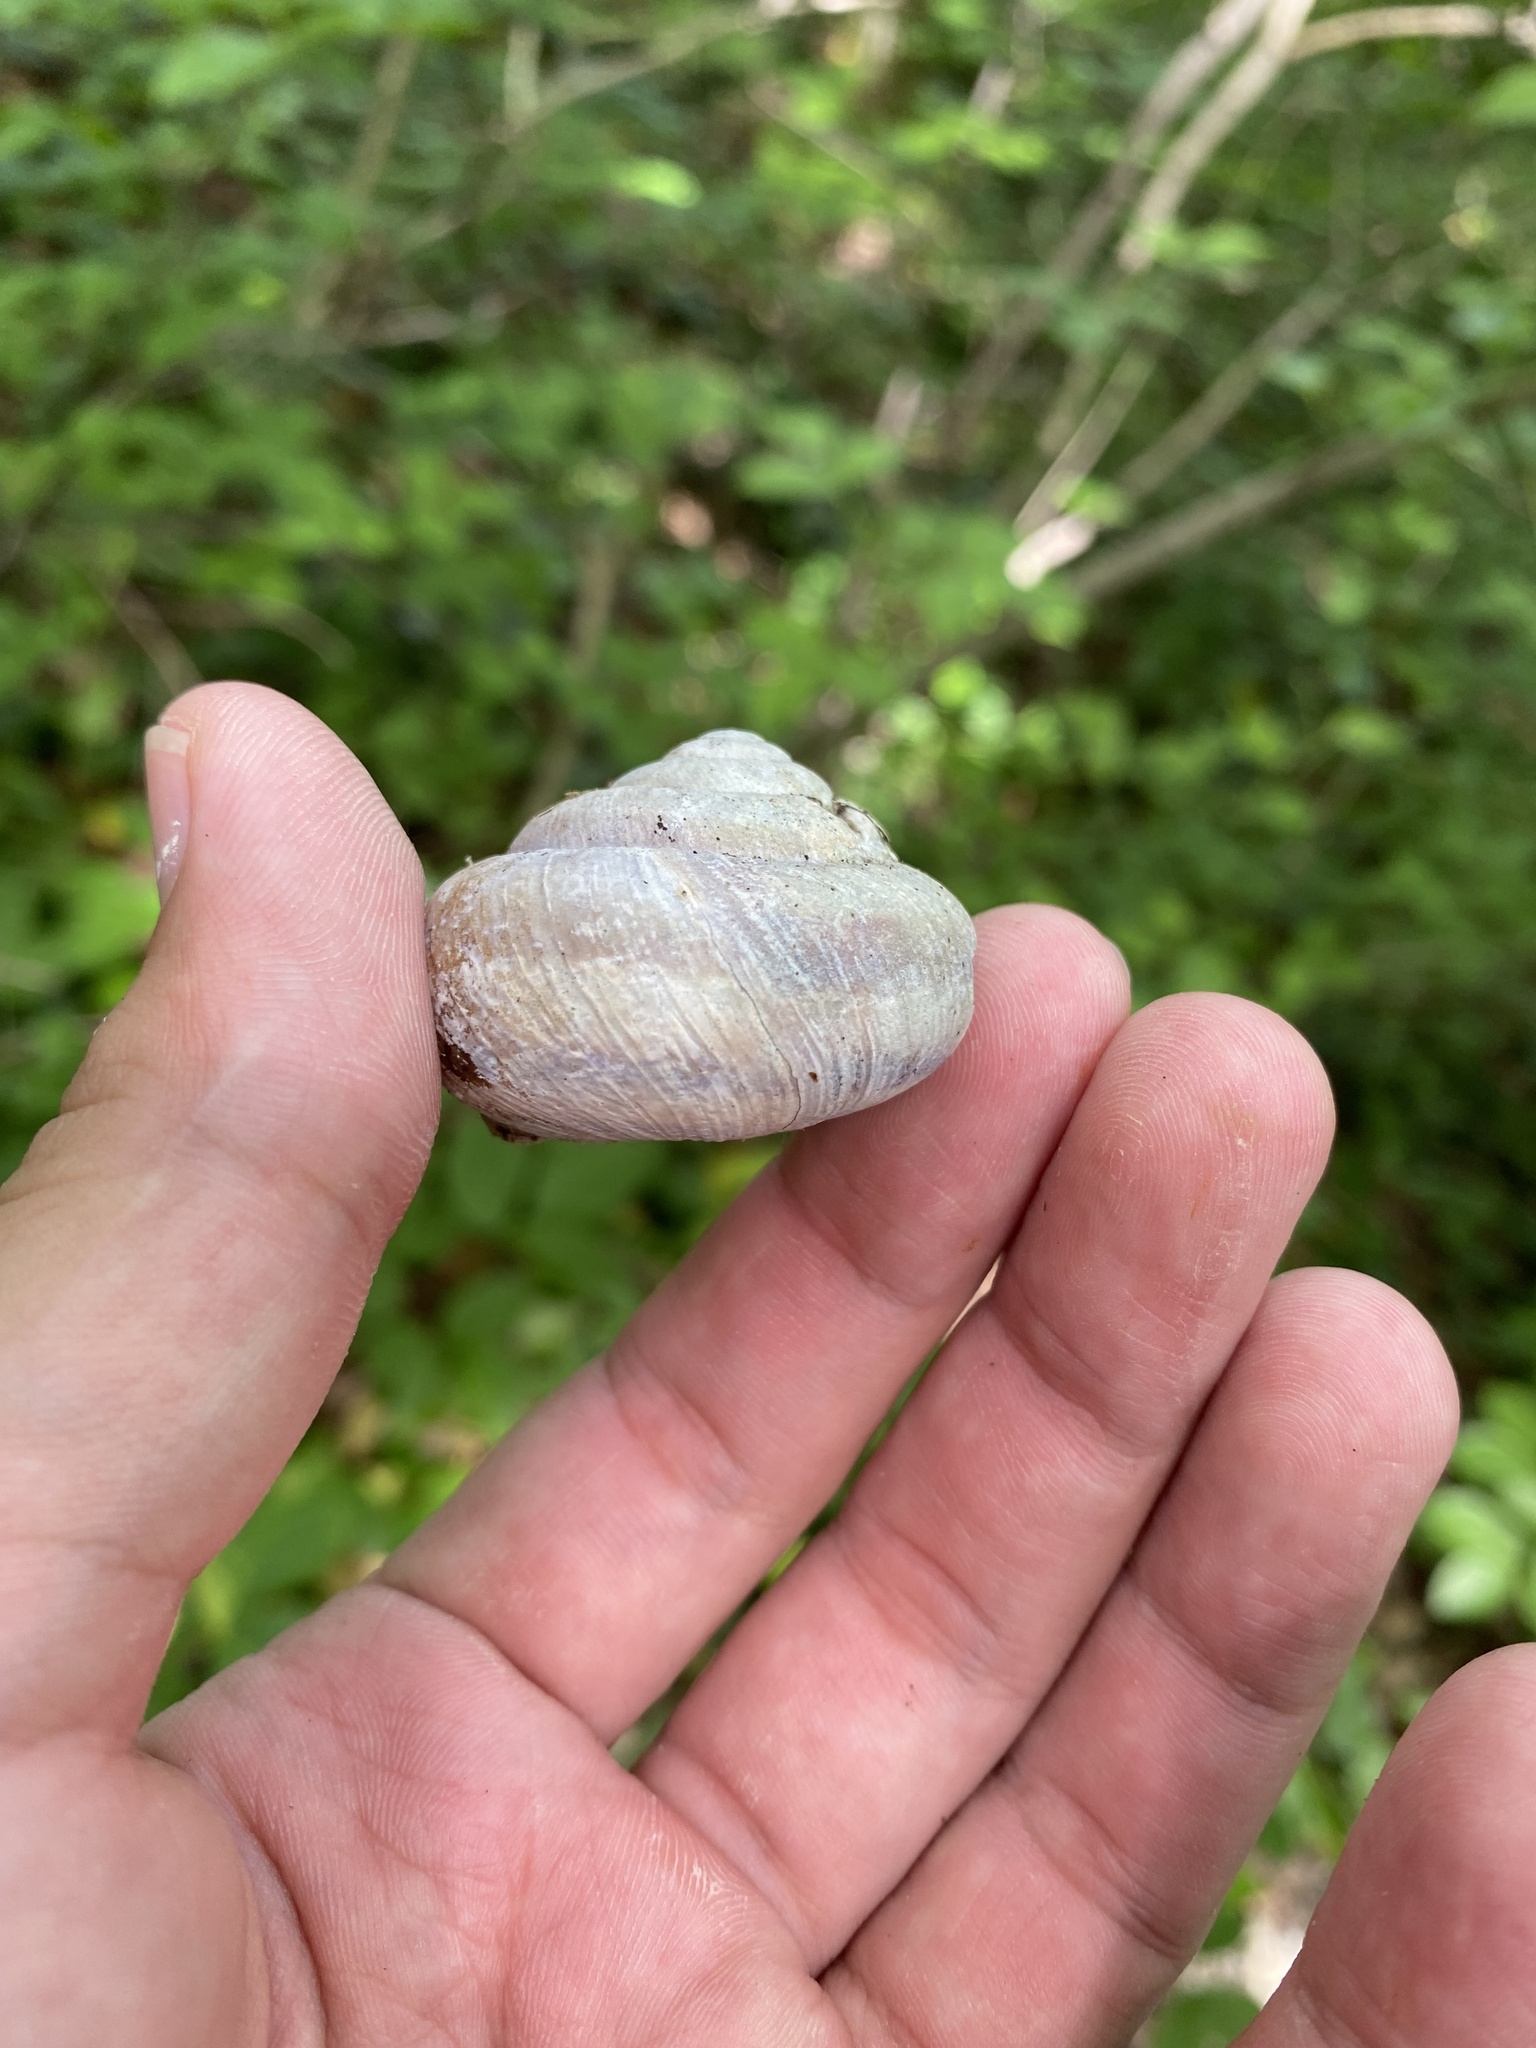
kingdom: Animalia
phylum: Mollusca
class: Gastropoda
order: Stylommatophora
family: Helicidae
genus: Caucasotachea
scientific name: Caucasotachea atrolabiata
